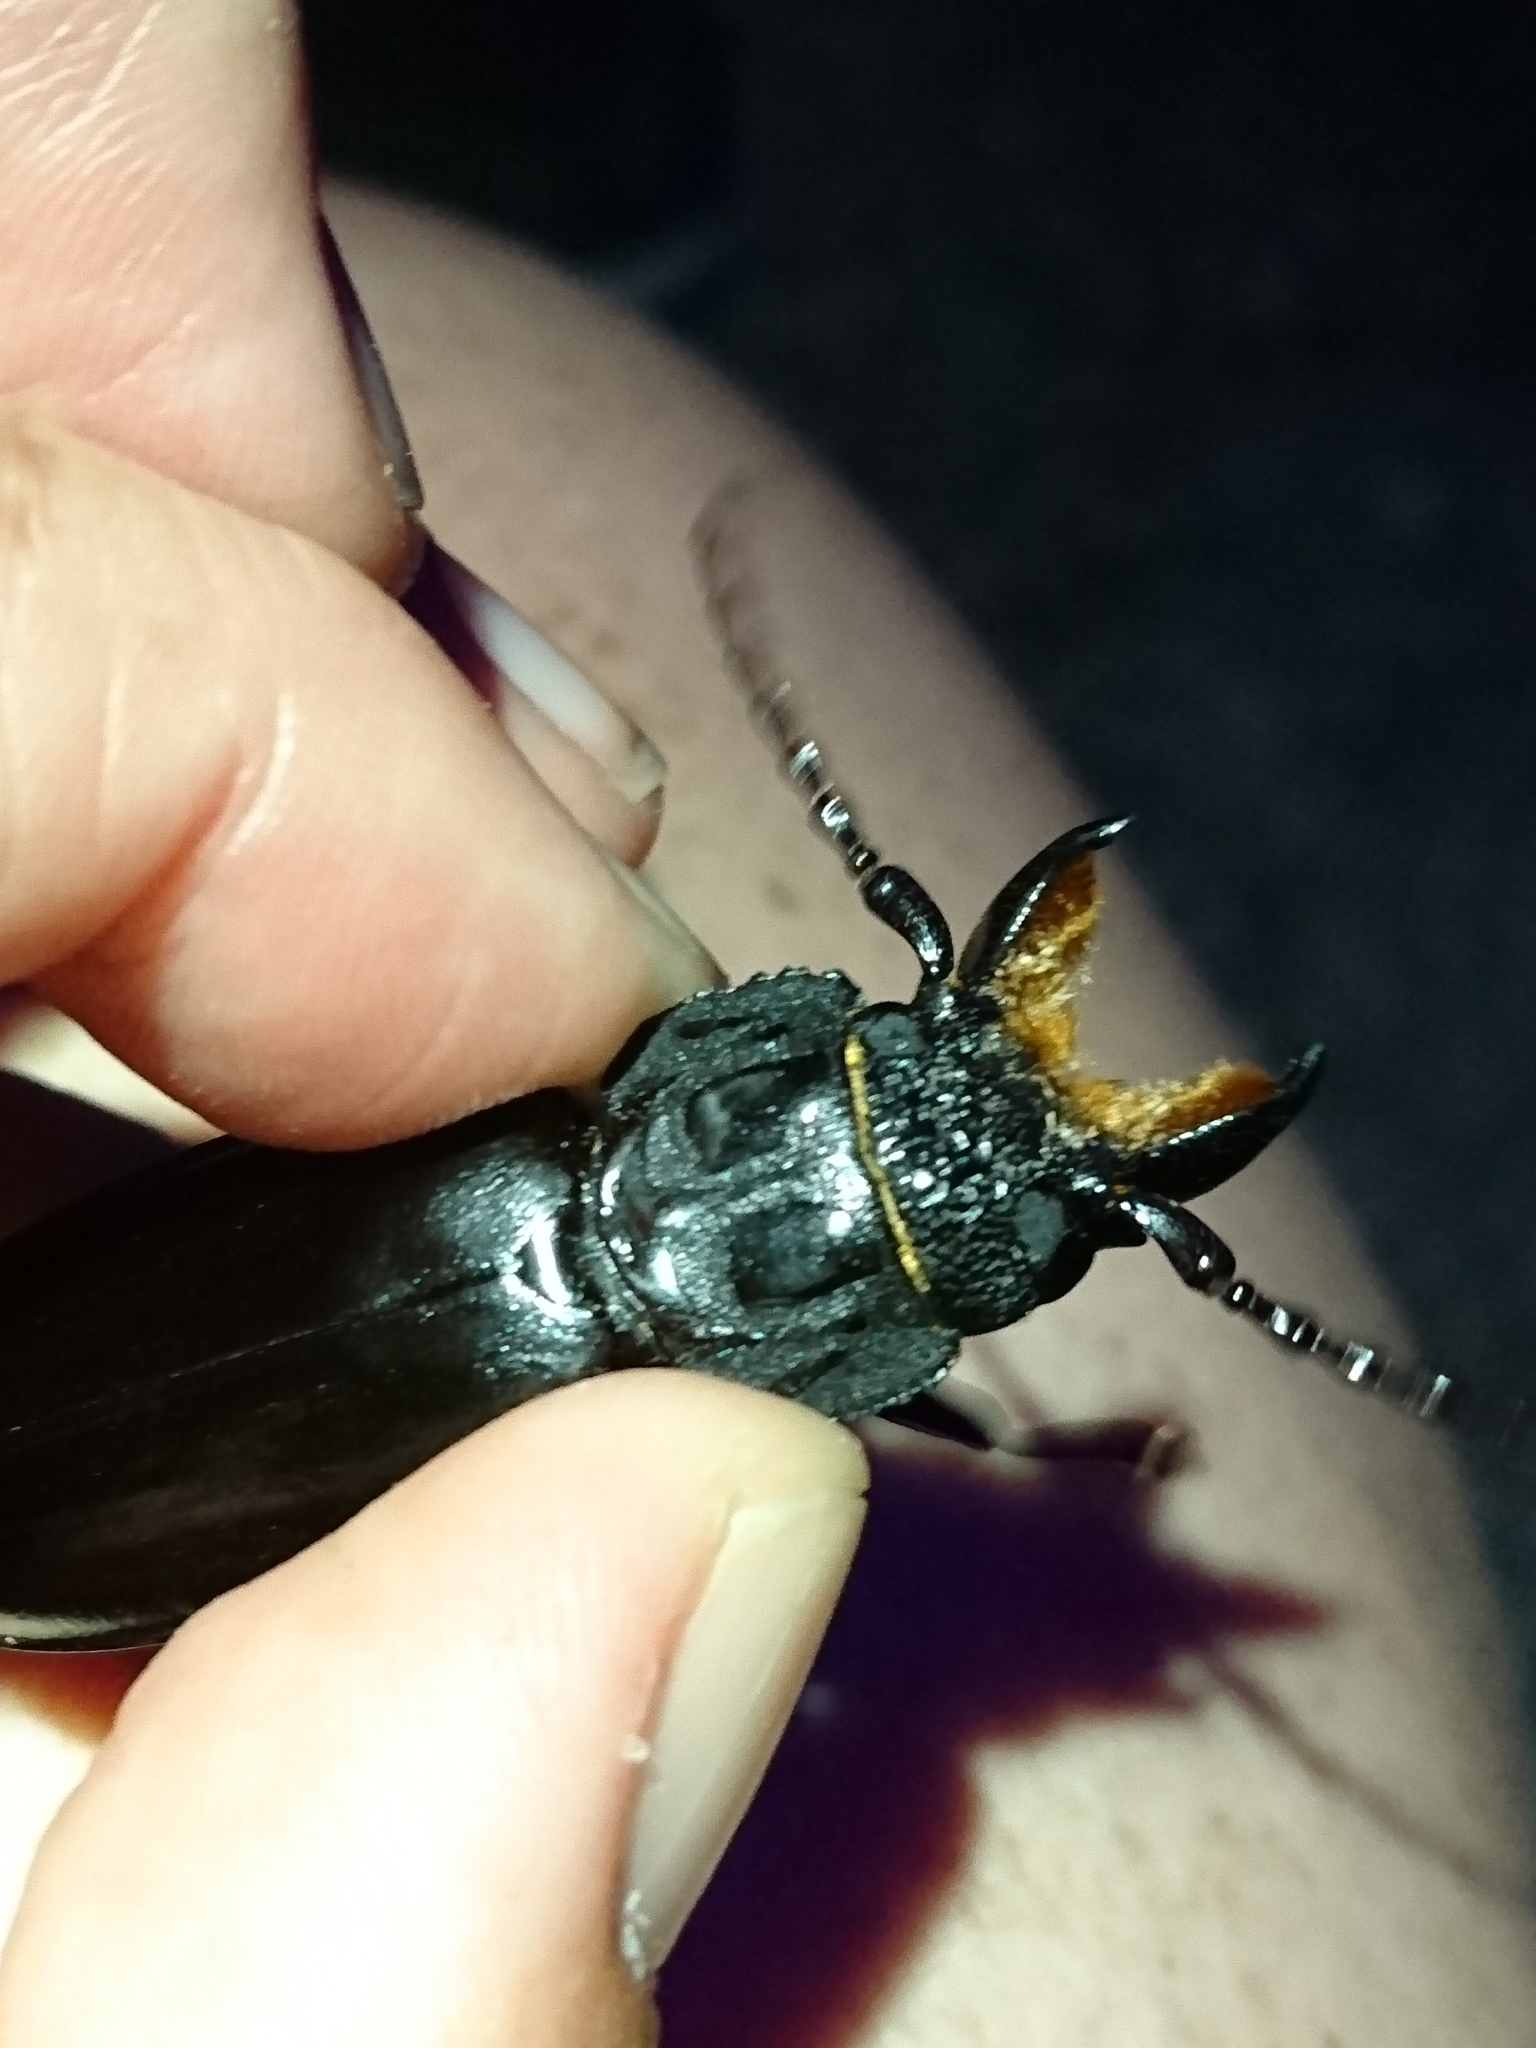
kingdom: Animalia
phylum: Arthropoda
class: Insecta
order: Coleoptera
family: Cerambycidae
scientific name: Cerambycidae
